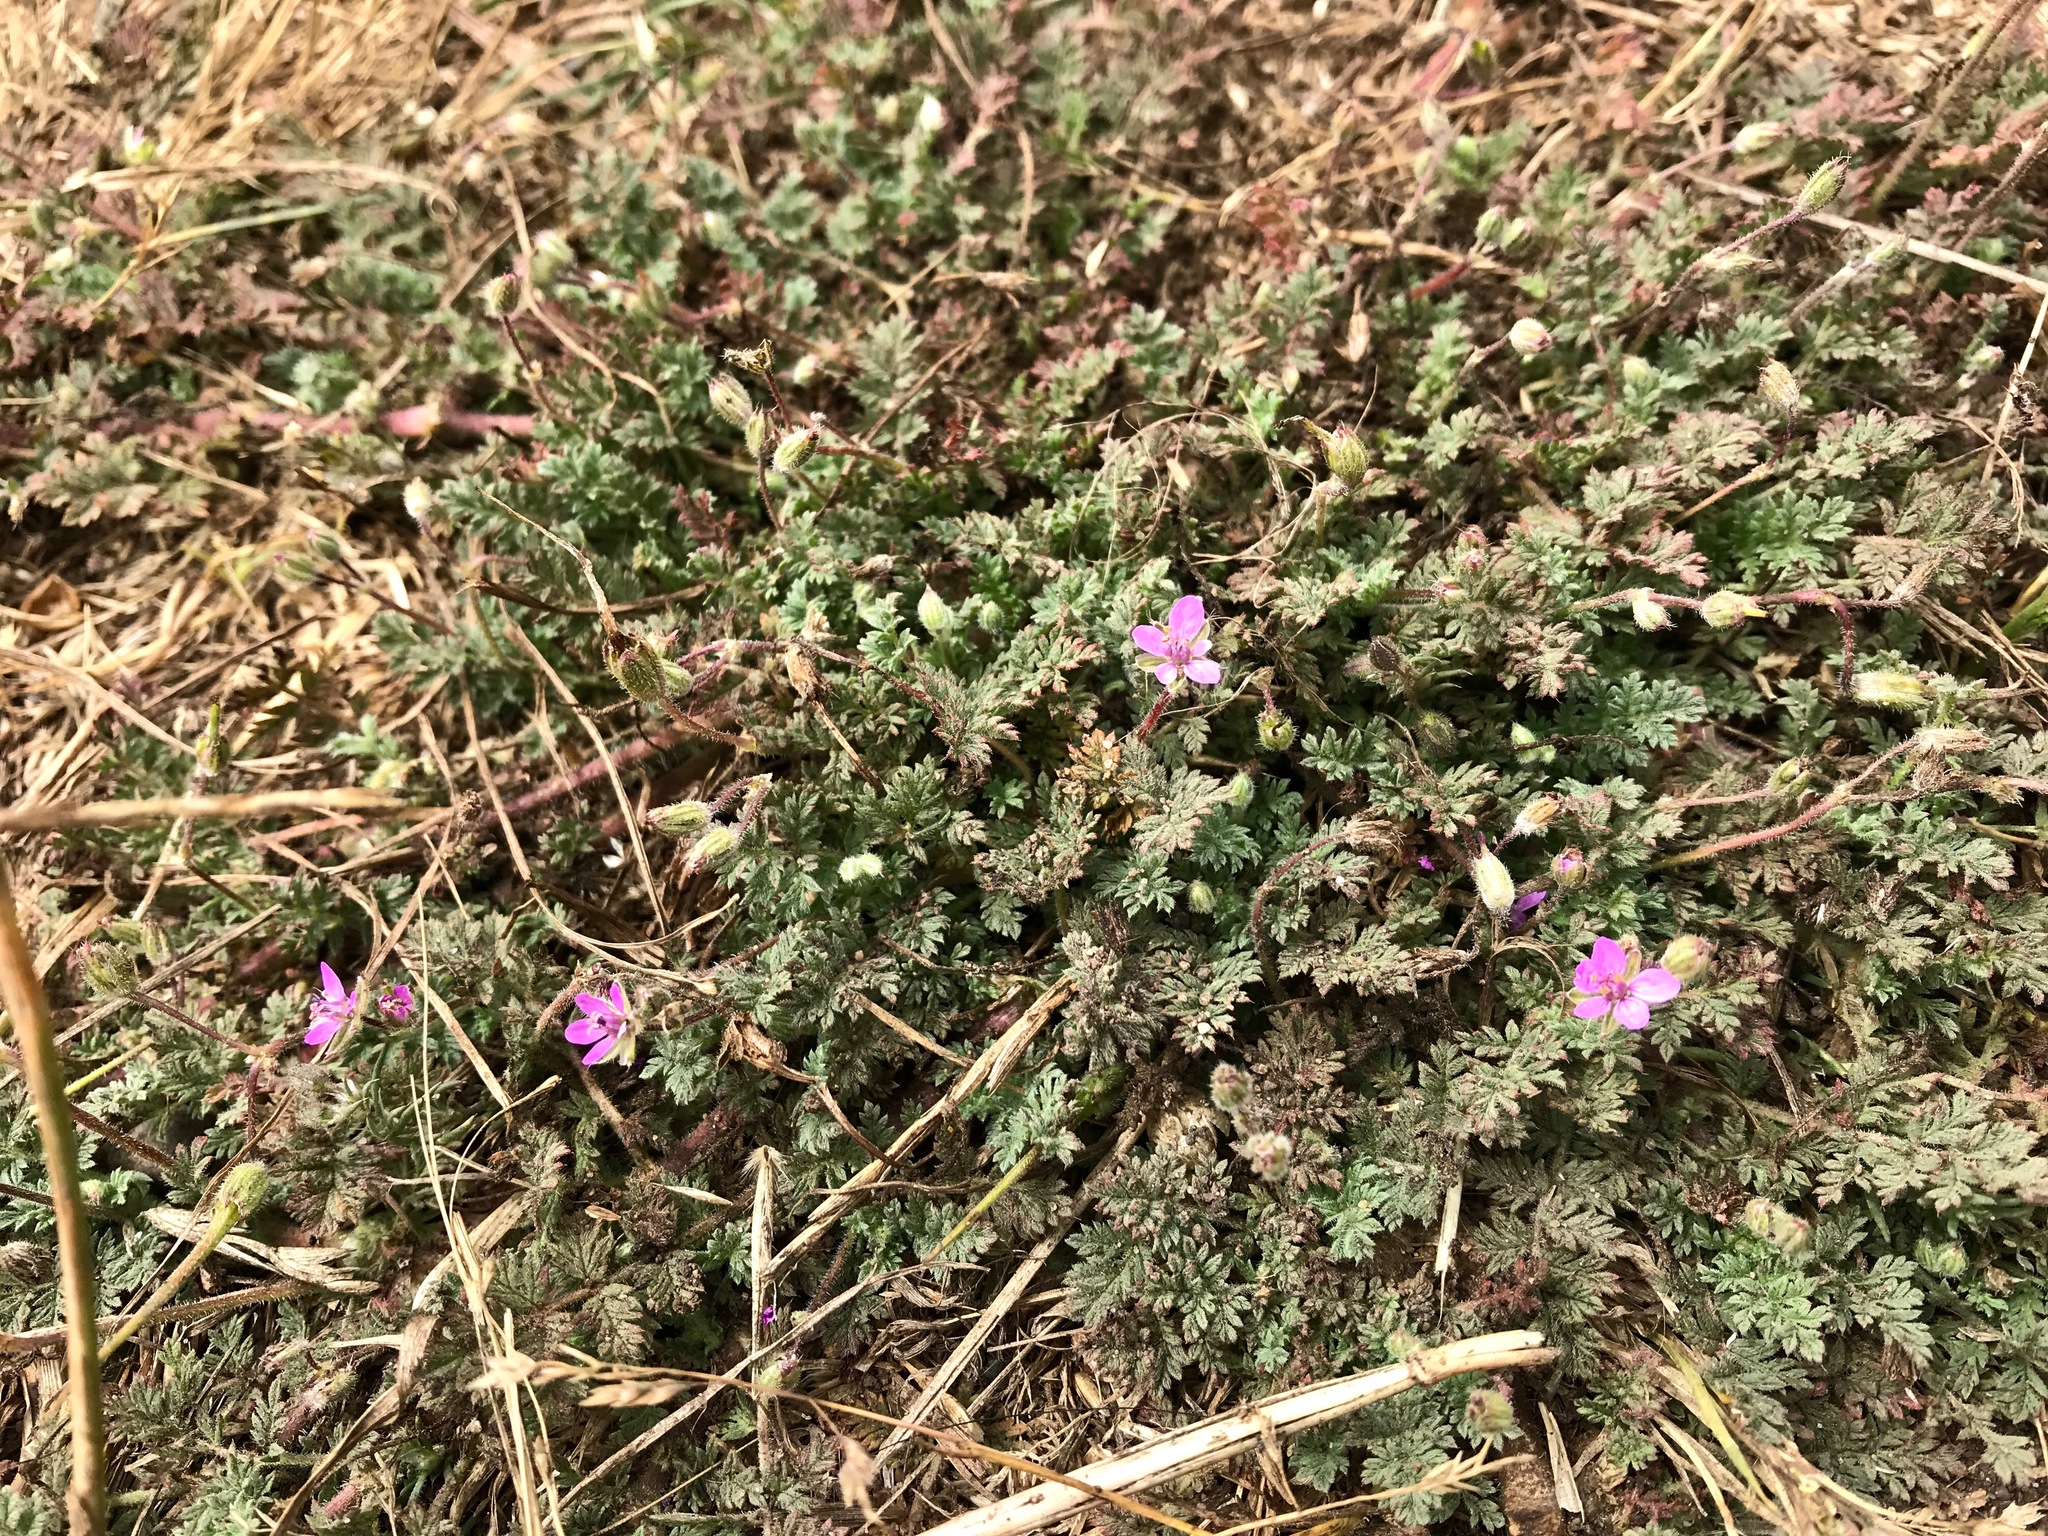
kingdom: Plantae
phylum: Tracheophyta
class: Magnoliopsida
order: Geraniales
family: Geraniaceae
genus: Erodium
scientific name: Erodium cicutarium
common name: Common stork's-bill
